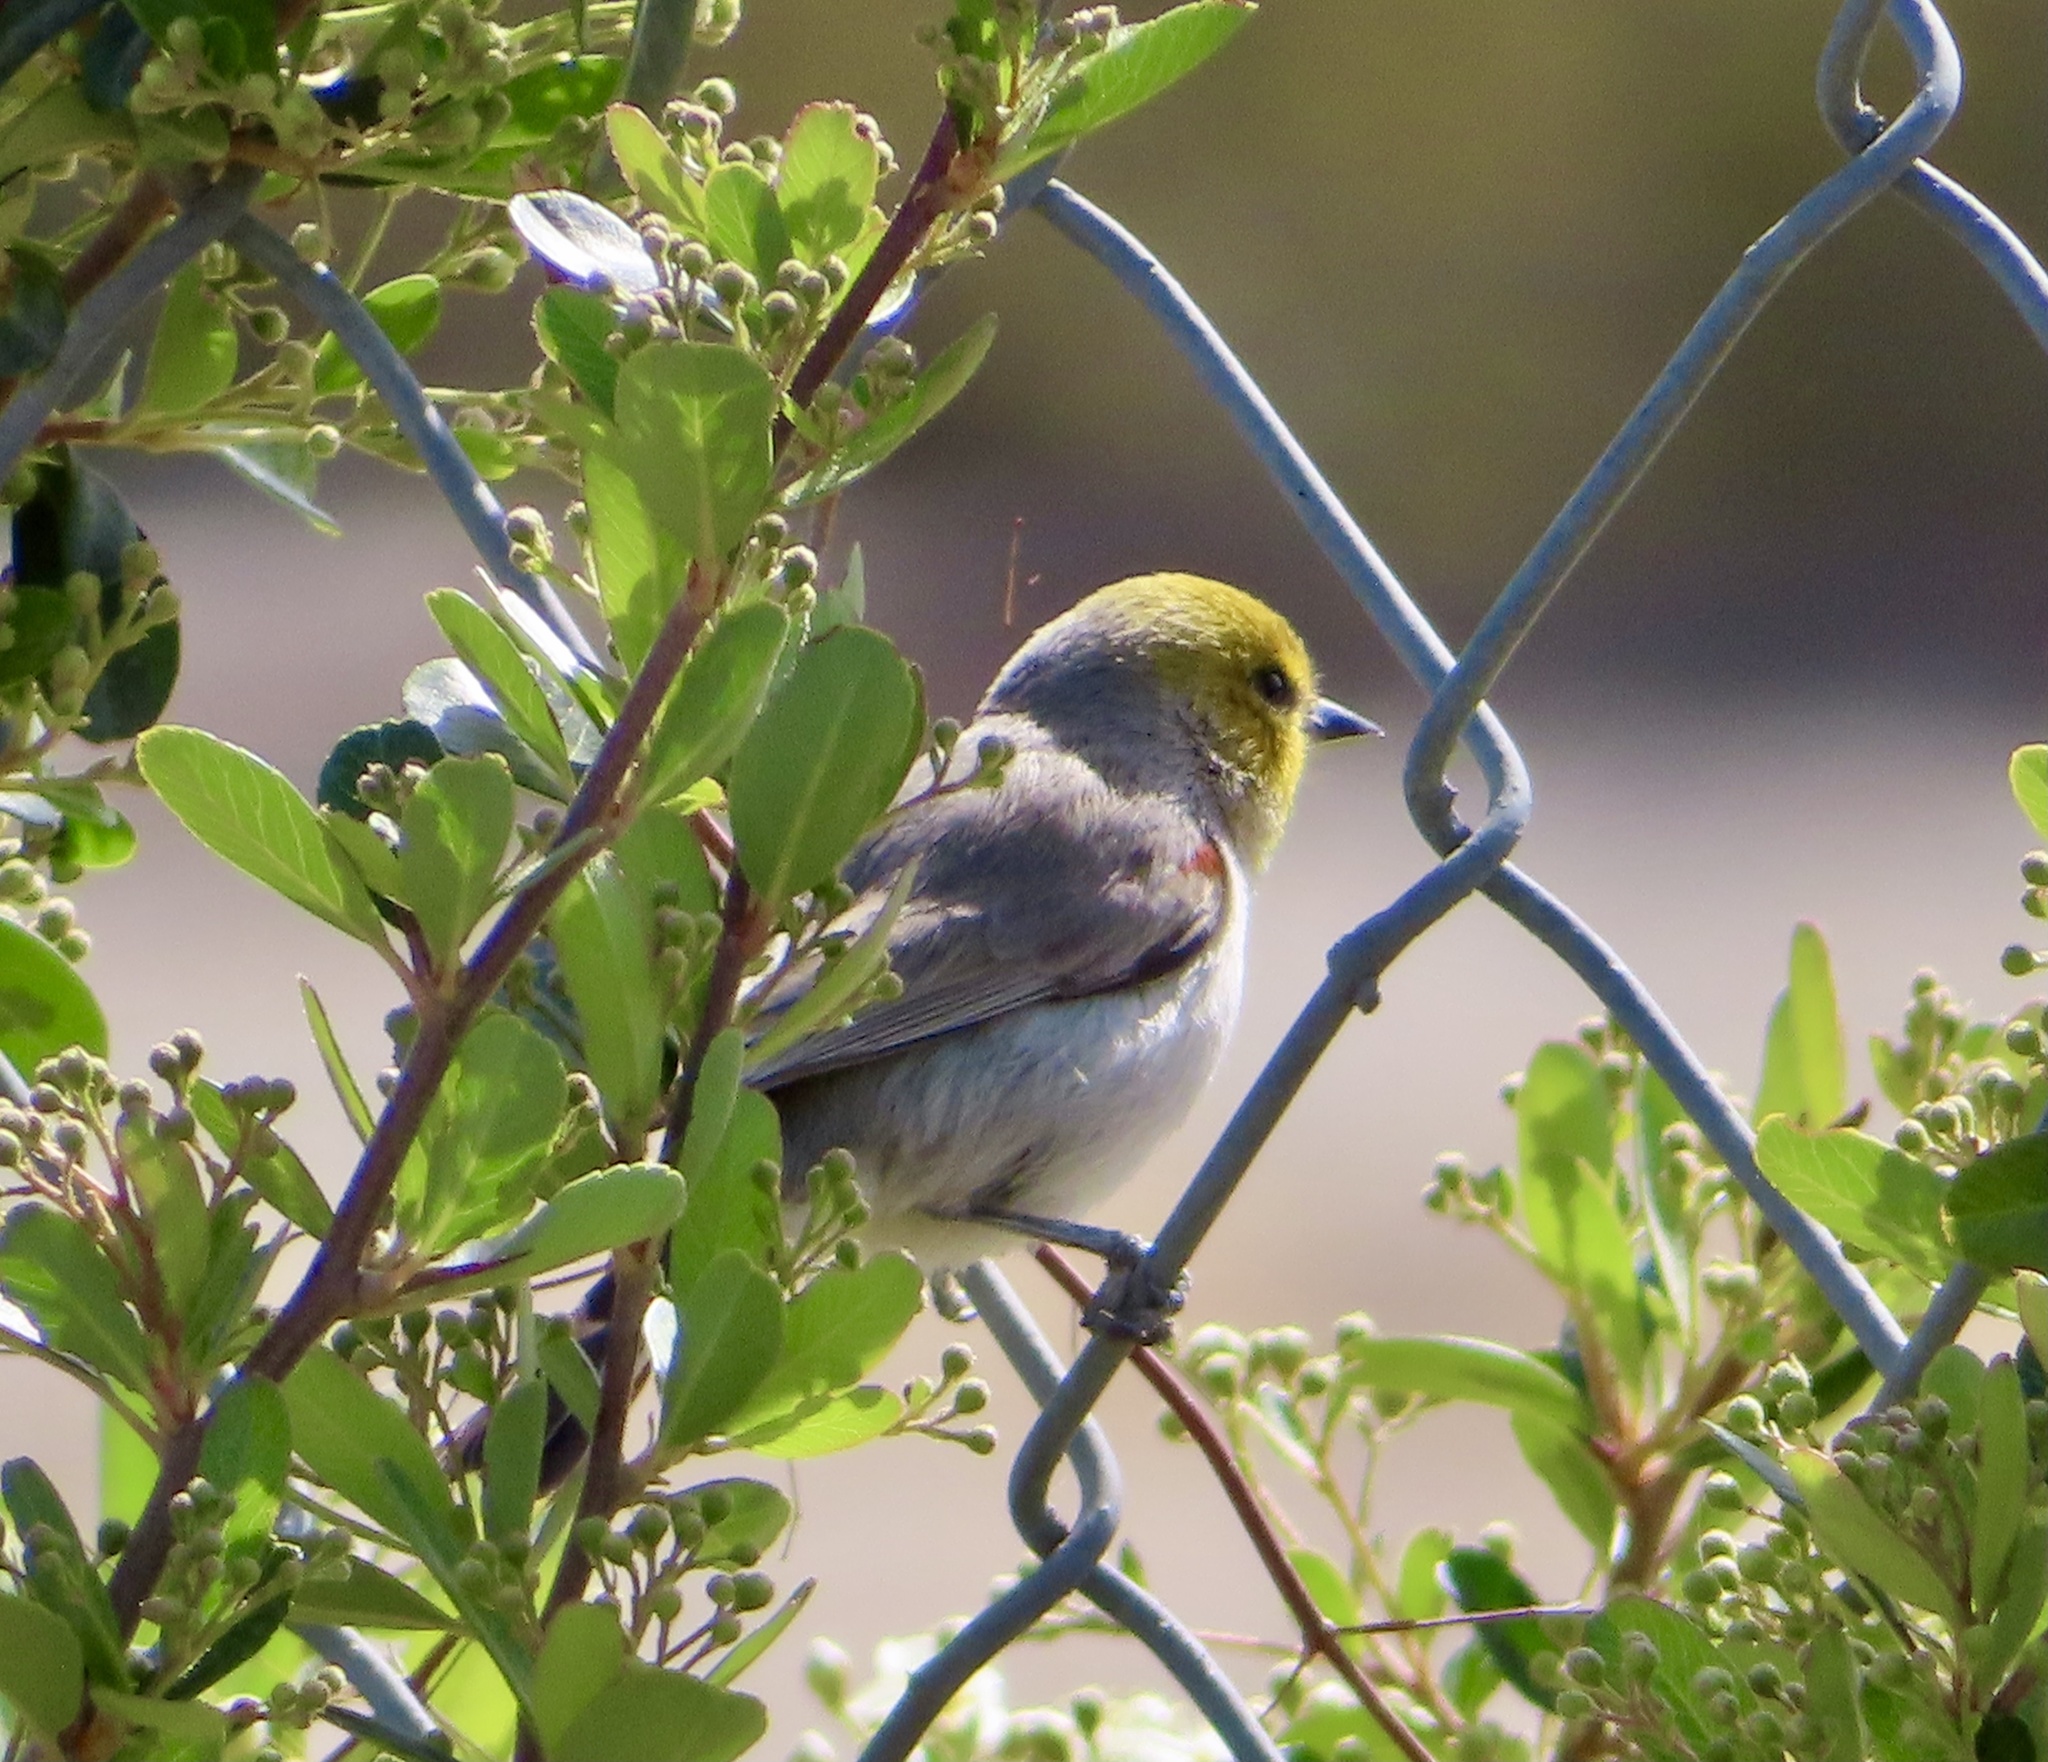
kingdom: Animalia
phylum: Chordata
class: Aves
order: Passeriformes
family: Remizidae
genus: Auriparus
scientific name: Auriparus flaviceps
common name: Verdin
